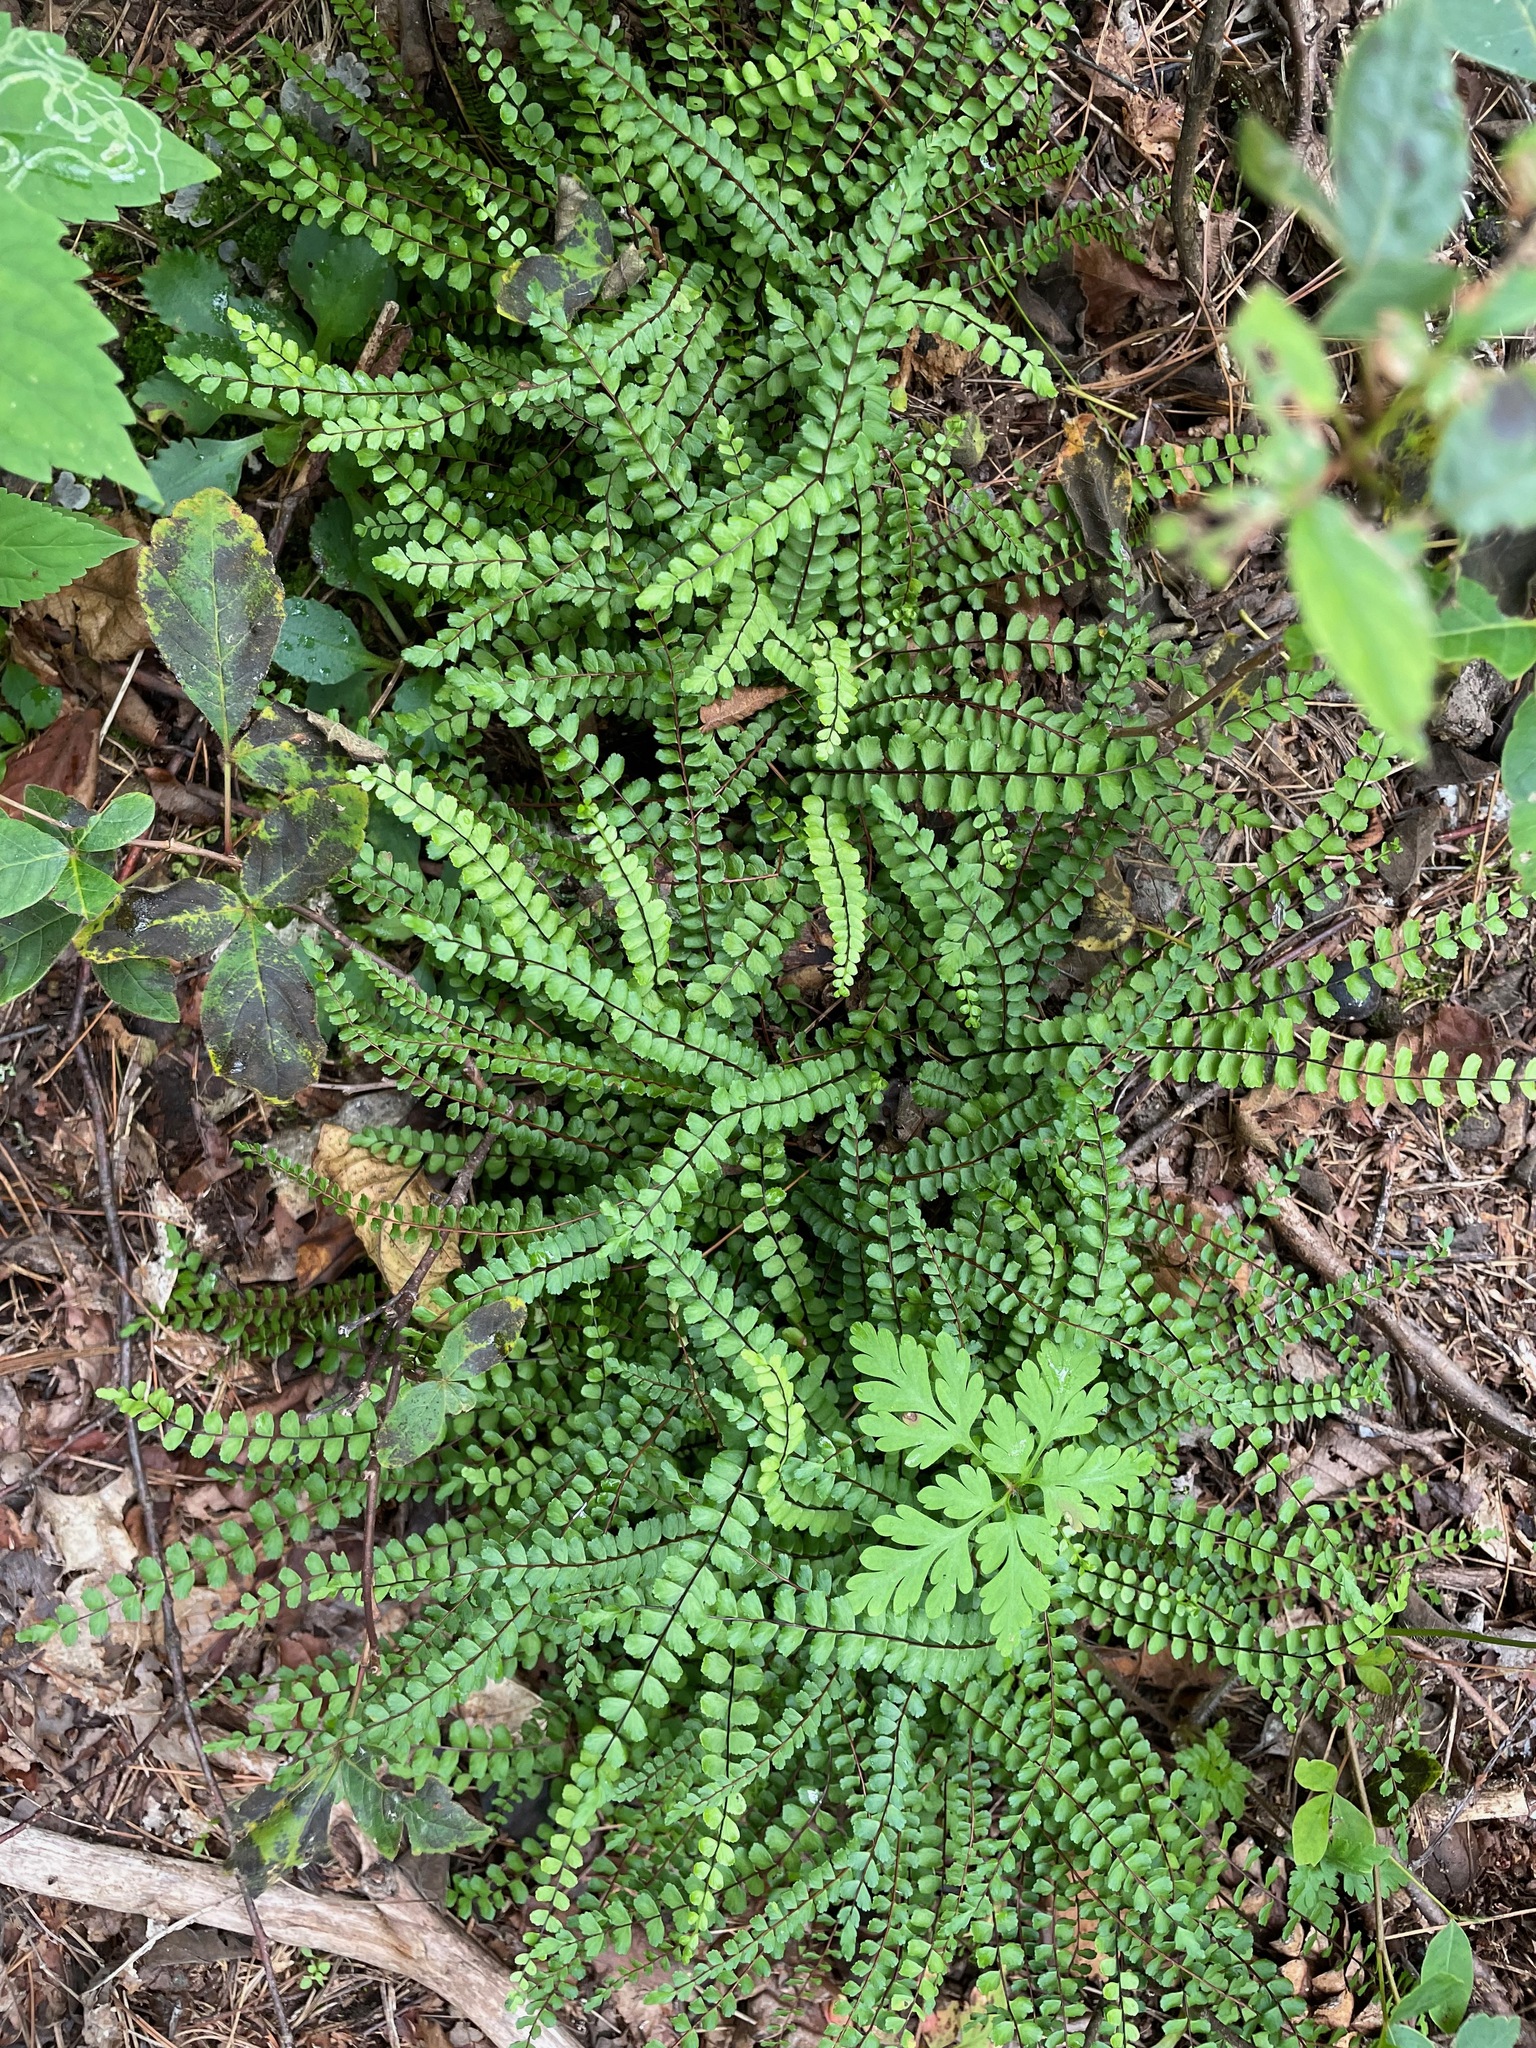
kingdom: Plantae
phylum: Tracheophyta
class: Polypodiopsida
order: Polypodiales
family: Aspleniaceae
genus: Asplenium
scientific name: Asplenium trichomanes
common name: Maidenhair spleenwort
